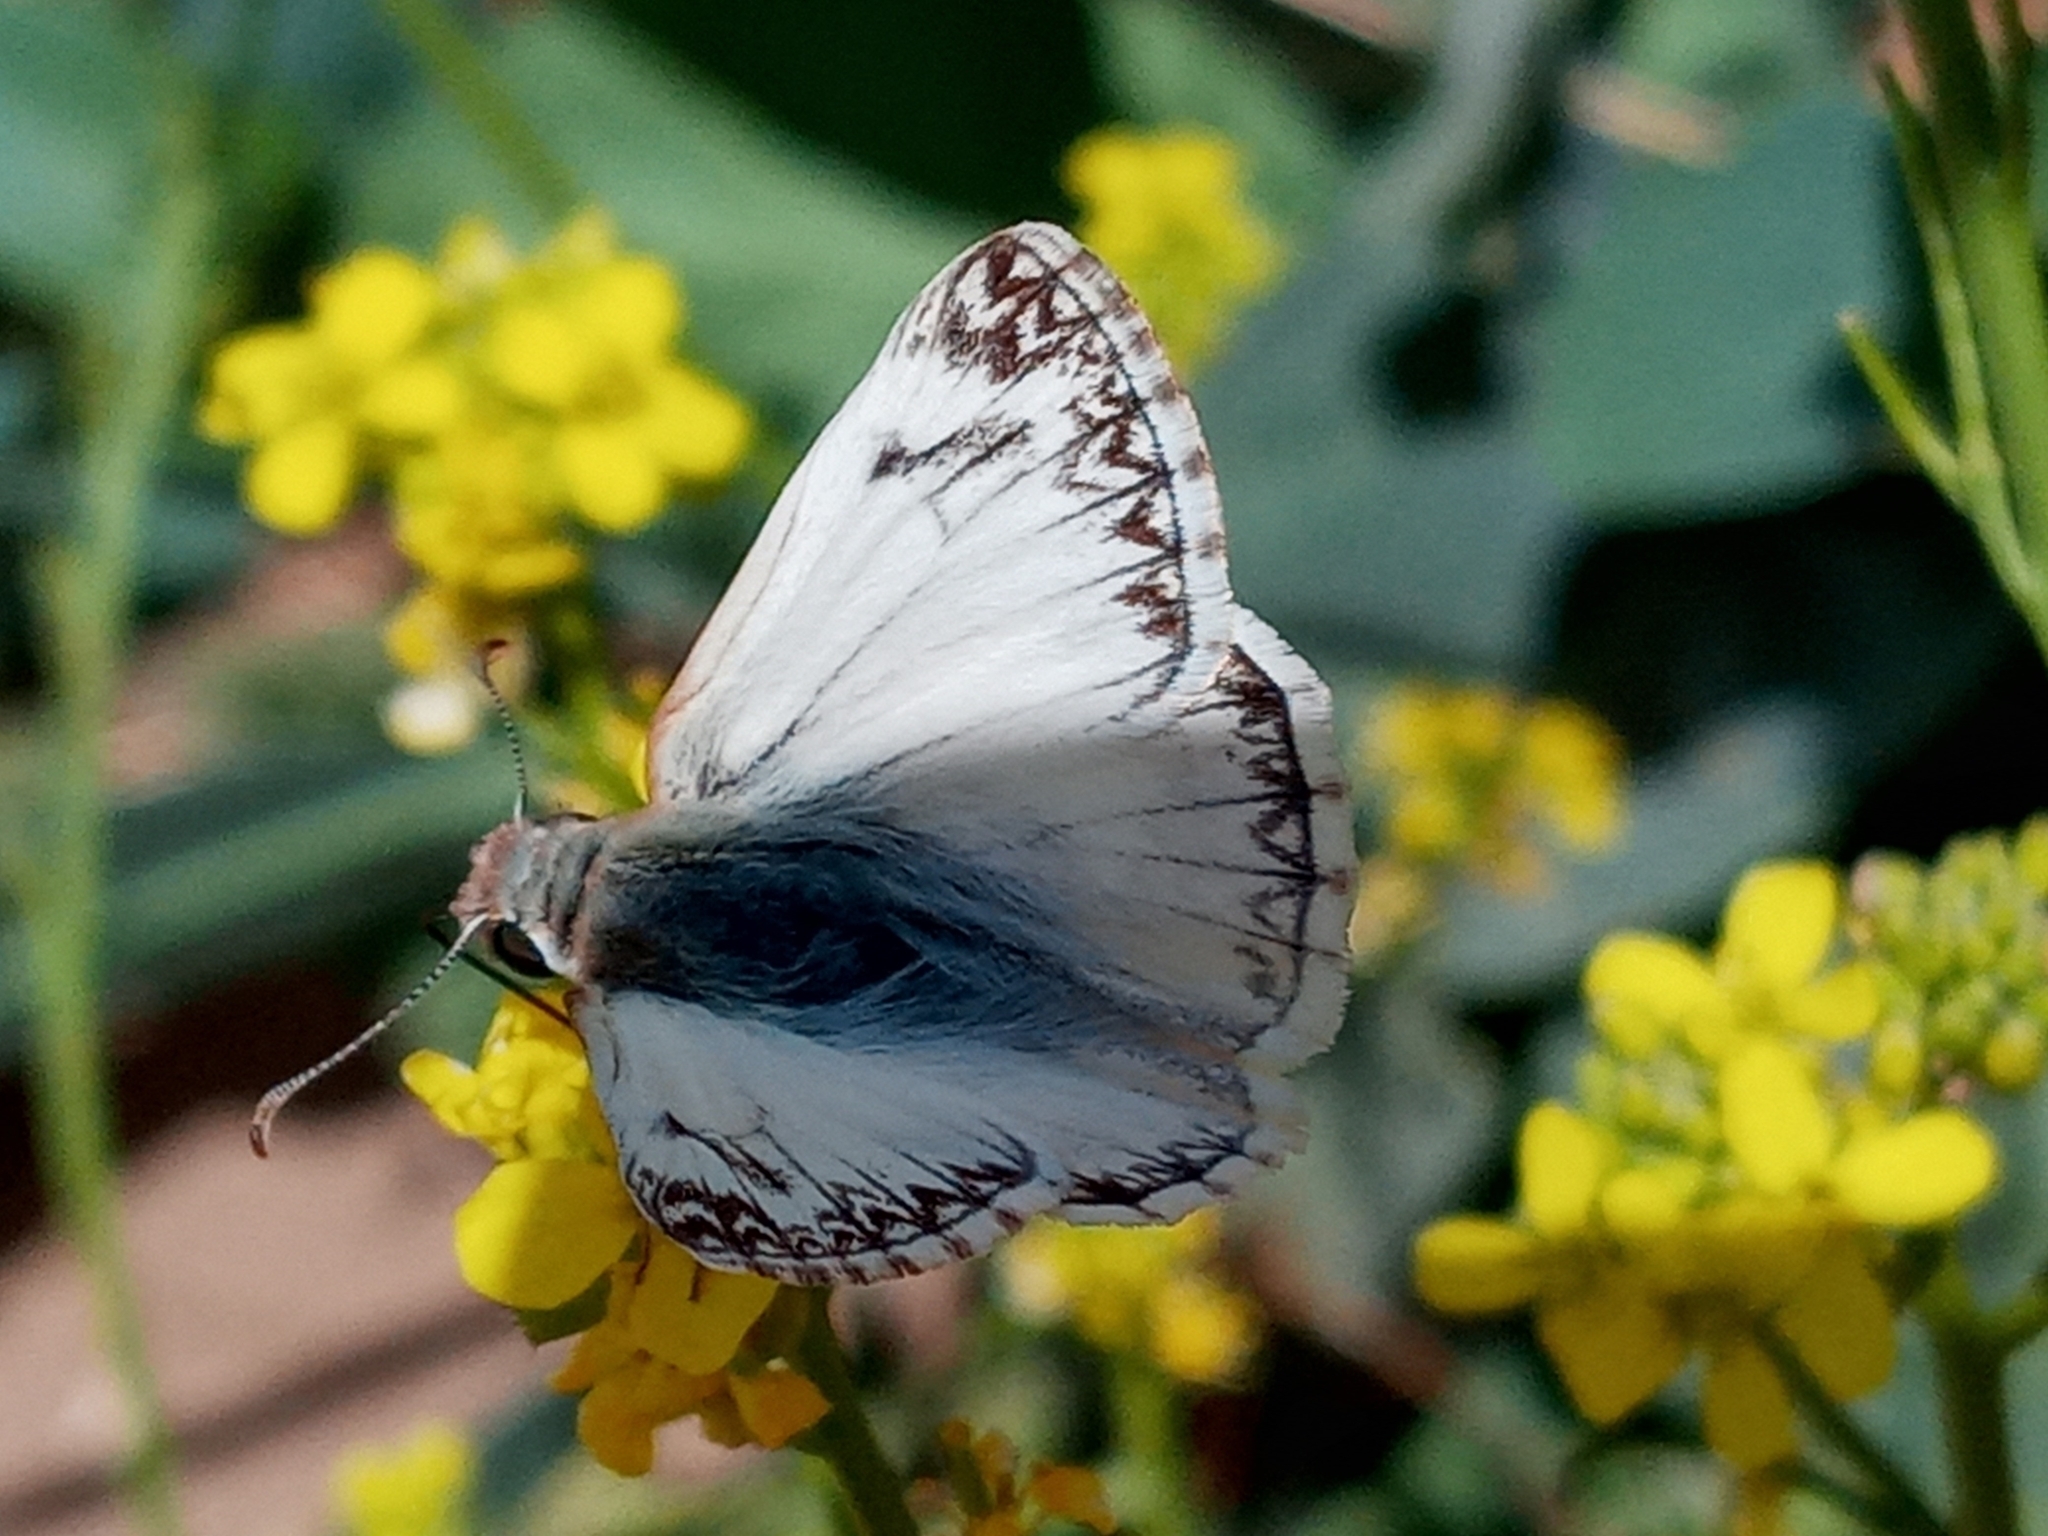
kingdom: Animalia
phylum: Arthropoda
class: Insecta
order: Lepidoptera
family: Hesperiidae
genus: Heliopetes
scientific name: Heliopetes ericetorum
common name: Northern white-skipper
